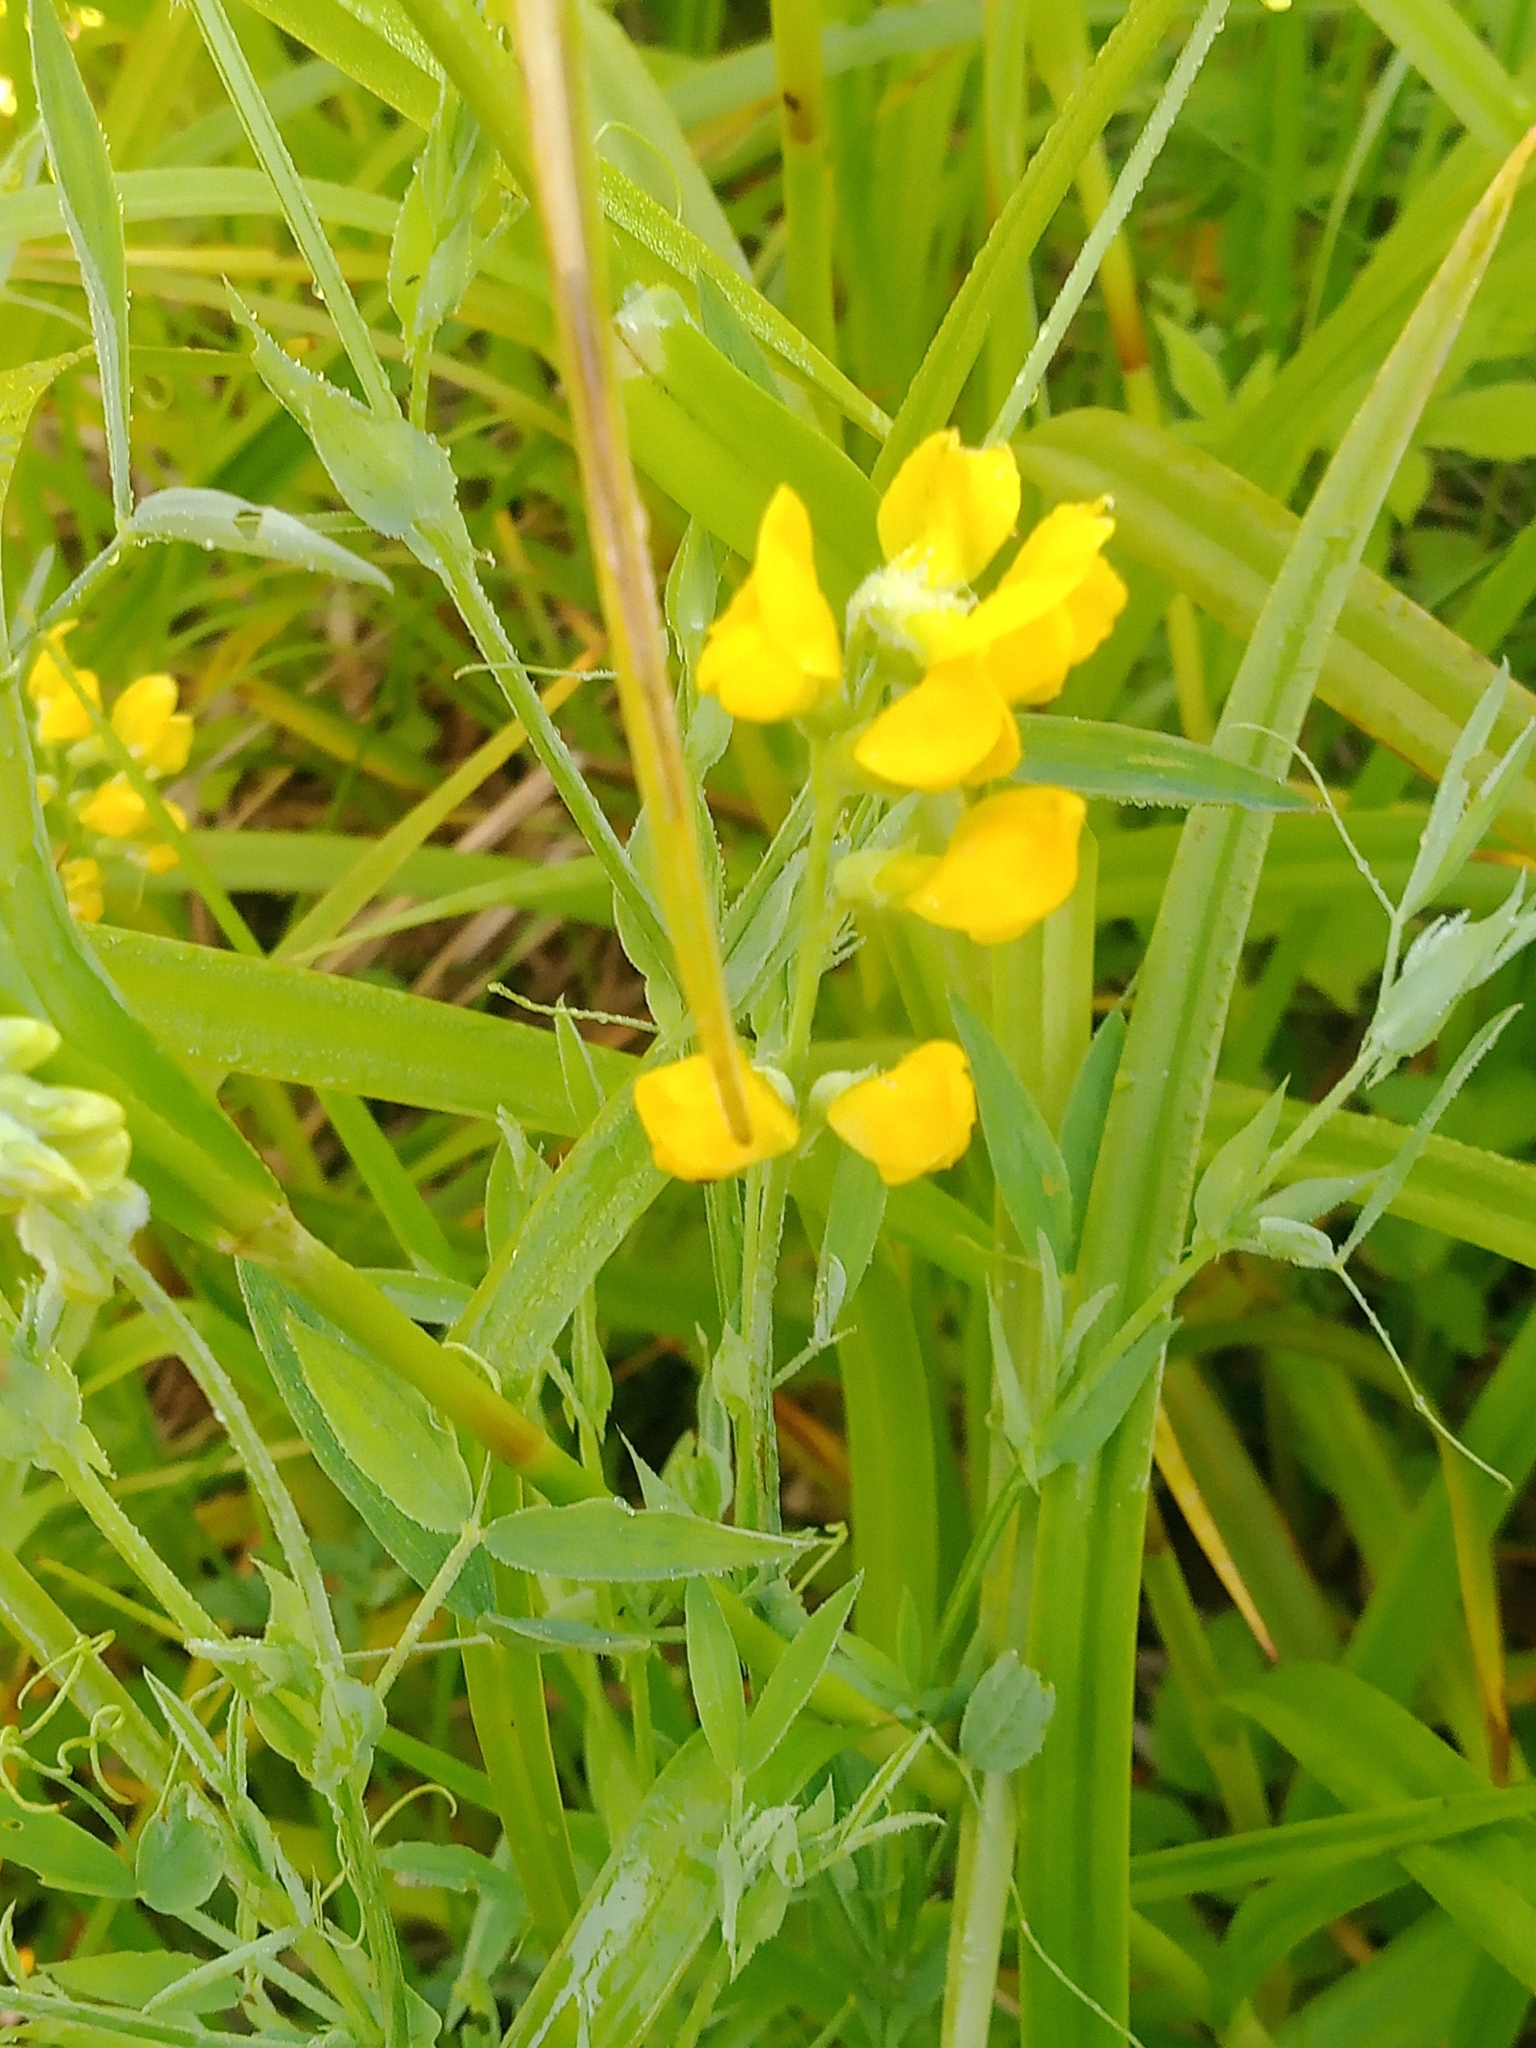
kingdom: Plantae
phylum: Tracheophyta
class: Magnoliopsida
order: Fabales
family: Fabaceae
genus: Lathyrus
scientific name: Lathyrus pratensis
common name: Meadow vetchling
